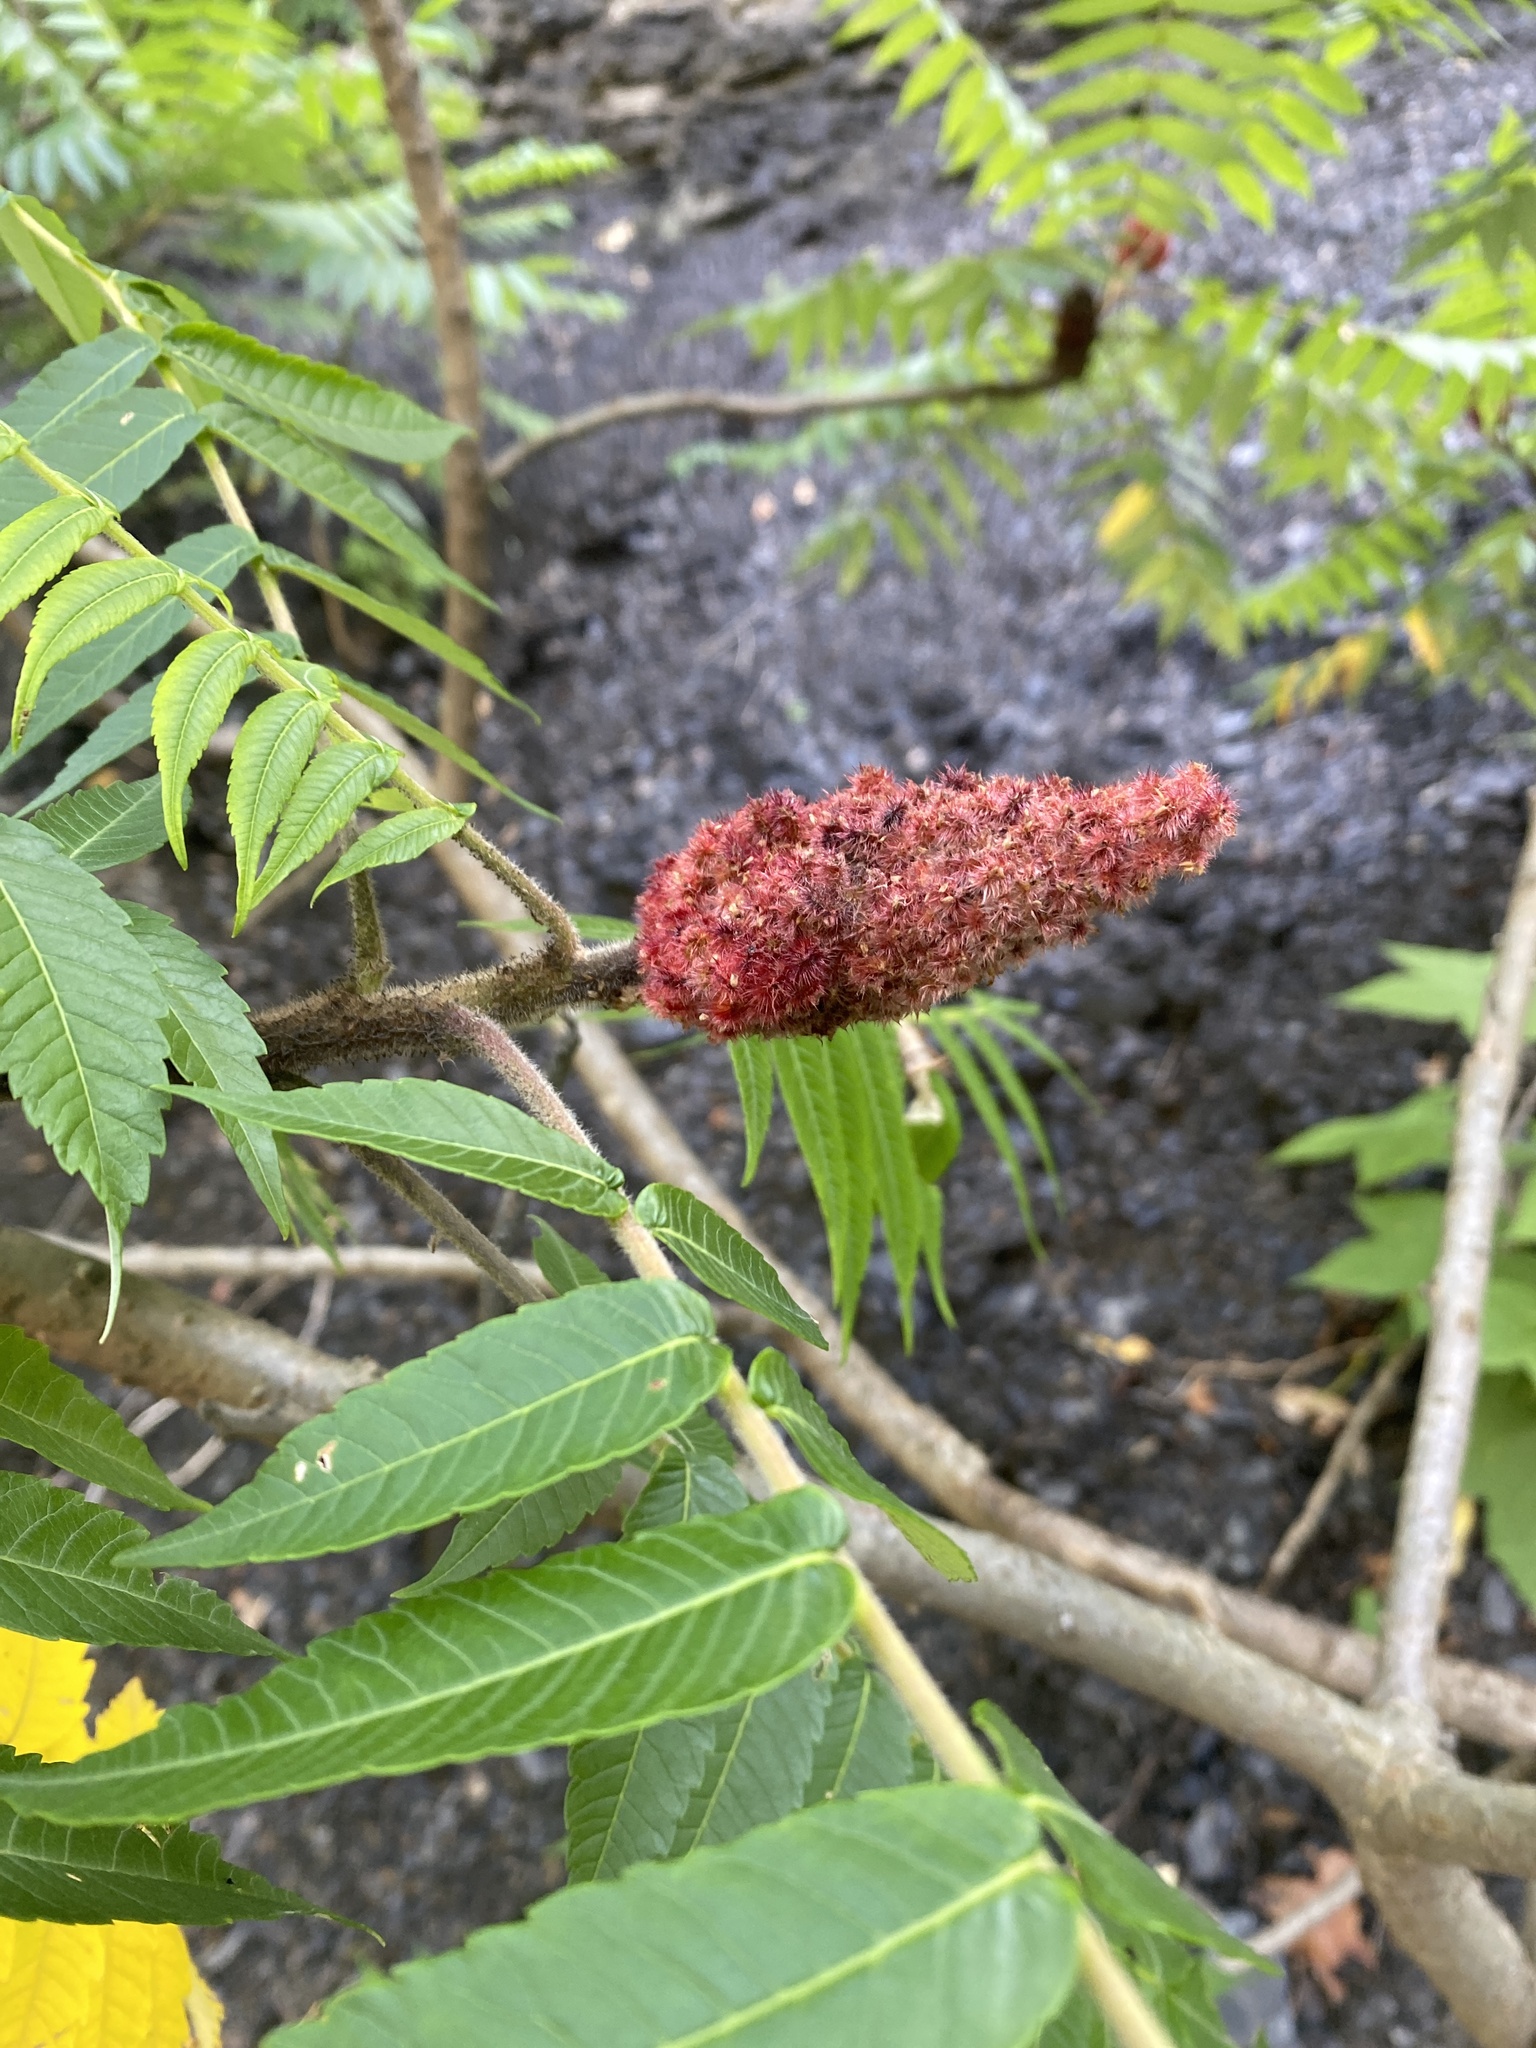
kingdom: Plantae
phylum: Tracheophyta
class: Magnoliopsida
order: Sapindales
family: Anacardiaceae
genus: Rhus
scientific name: Rhus typhina
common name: Staghorn sumac
